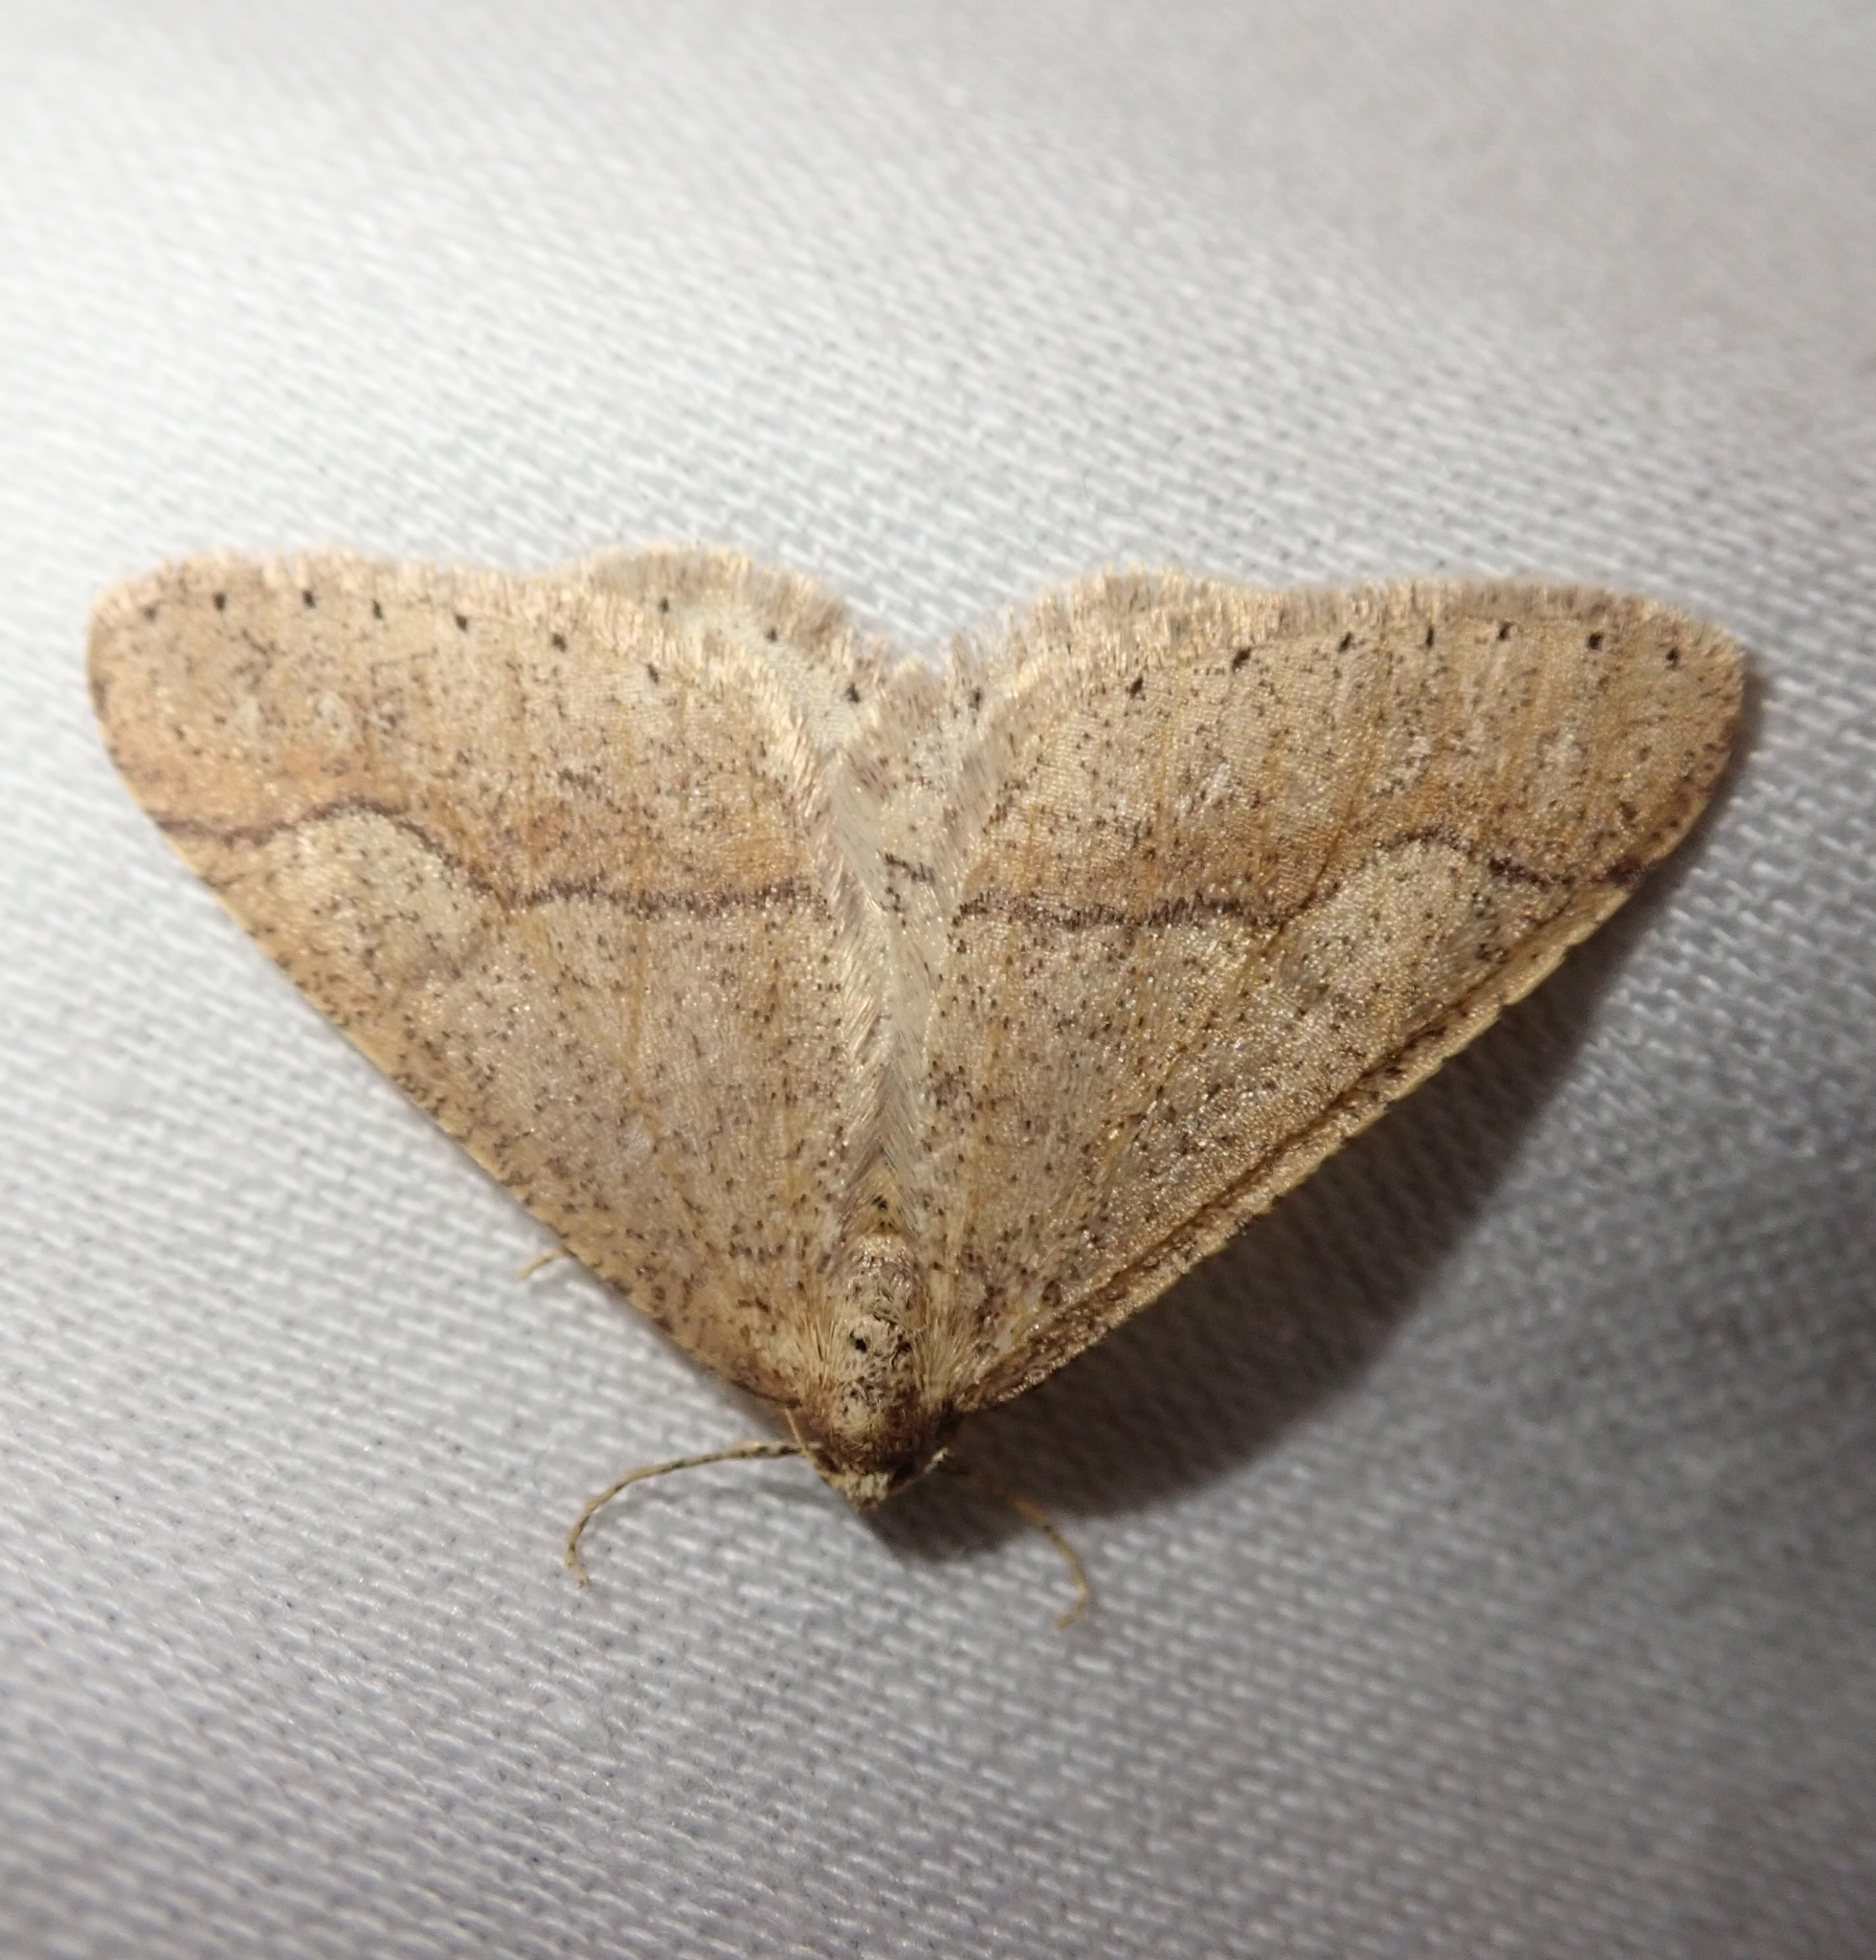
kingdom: Animalia
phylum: Arthropoda
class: Insecta
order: Lepidoptera
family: Geometridae
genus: Agriopis
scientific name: Agriopis marginaria
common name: Dotted border
